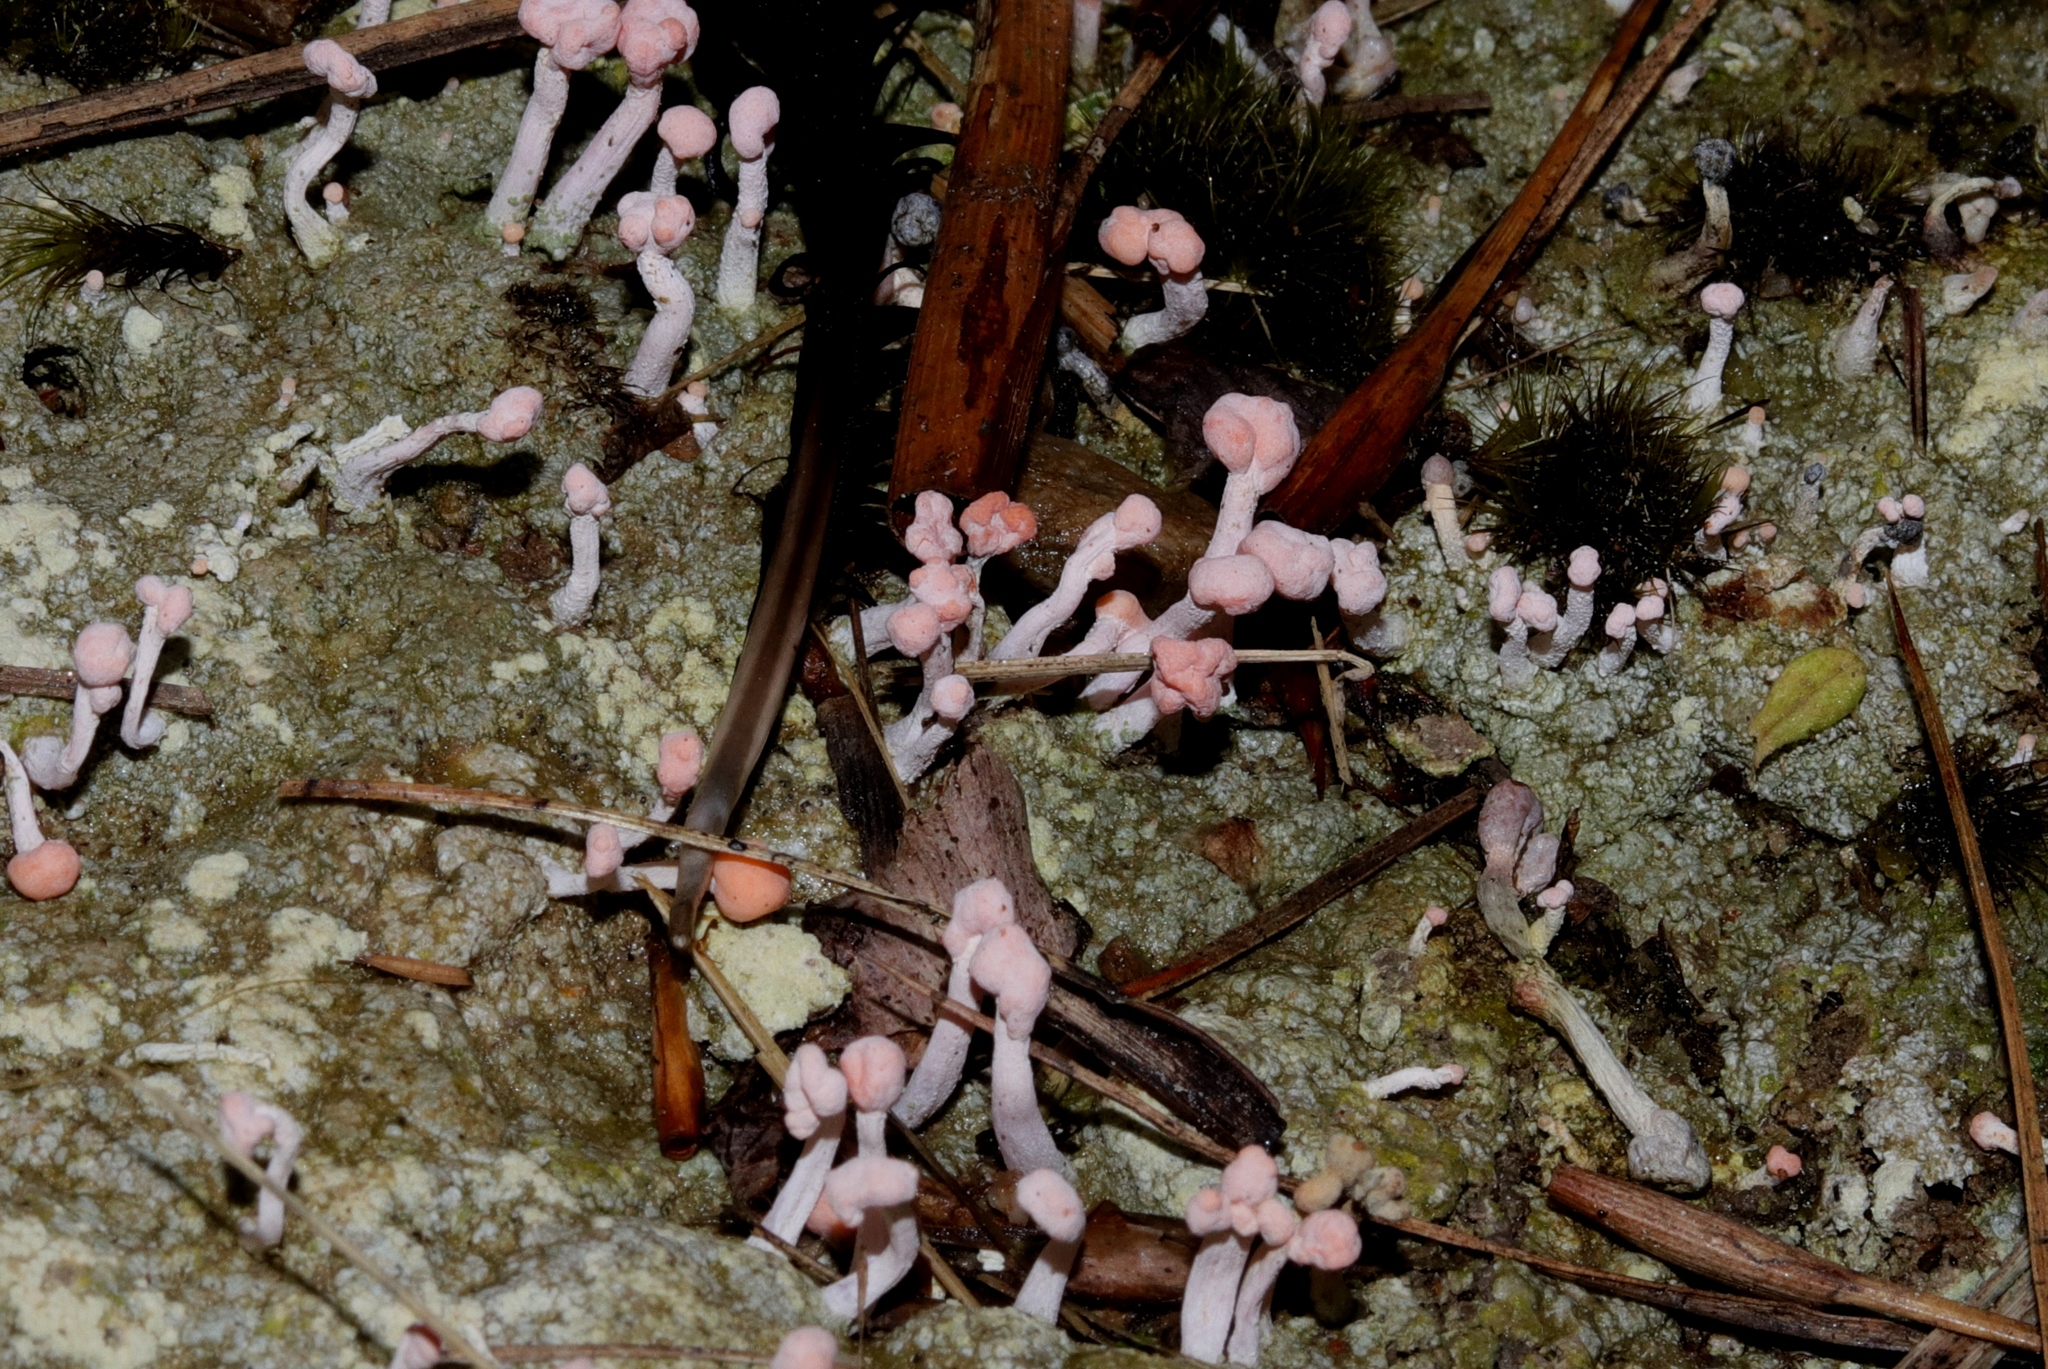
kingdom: Fungi
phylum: Ascomycota
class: Lecanoromycetes
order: Pertusariales
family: Icmadophilaceae
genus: Dibaeis
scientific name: Dibaeis arcuata
